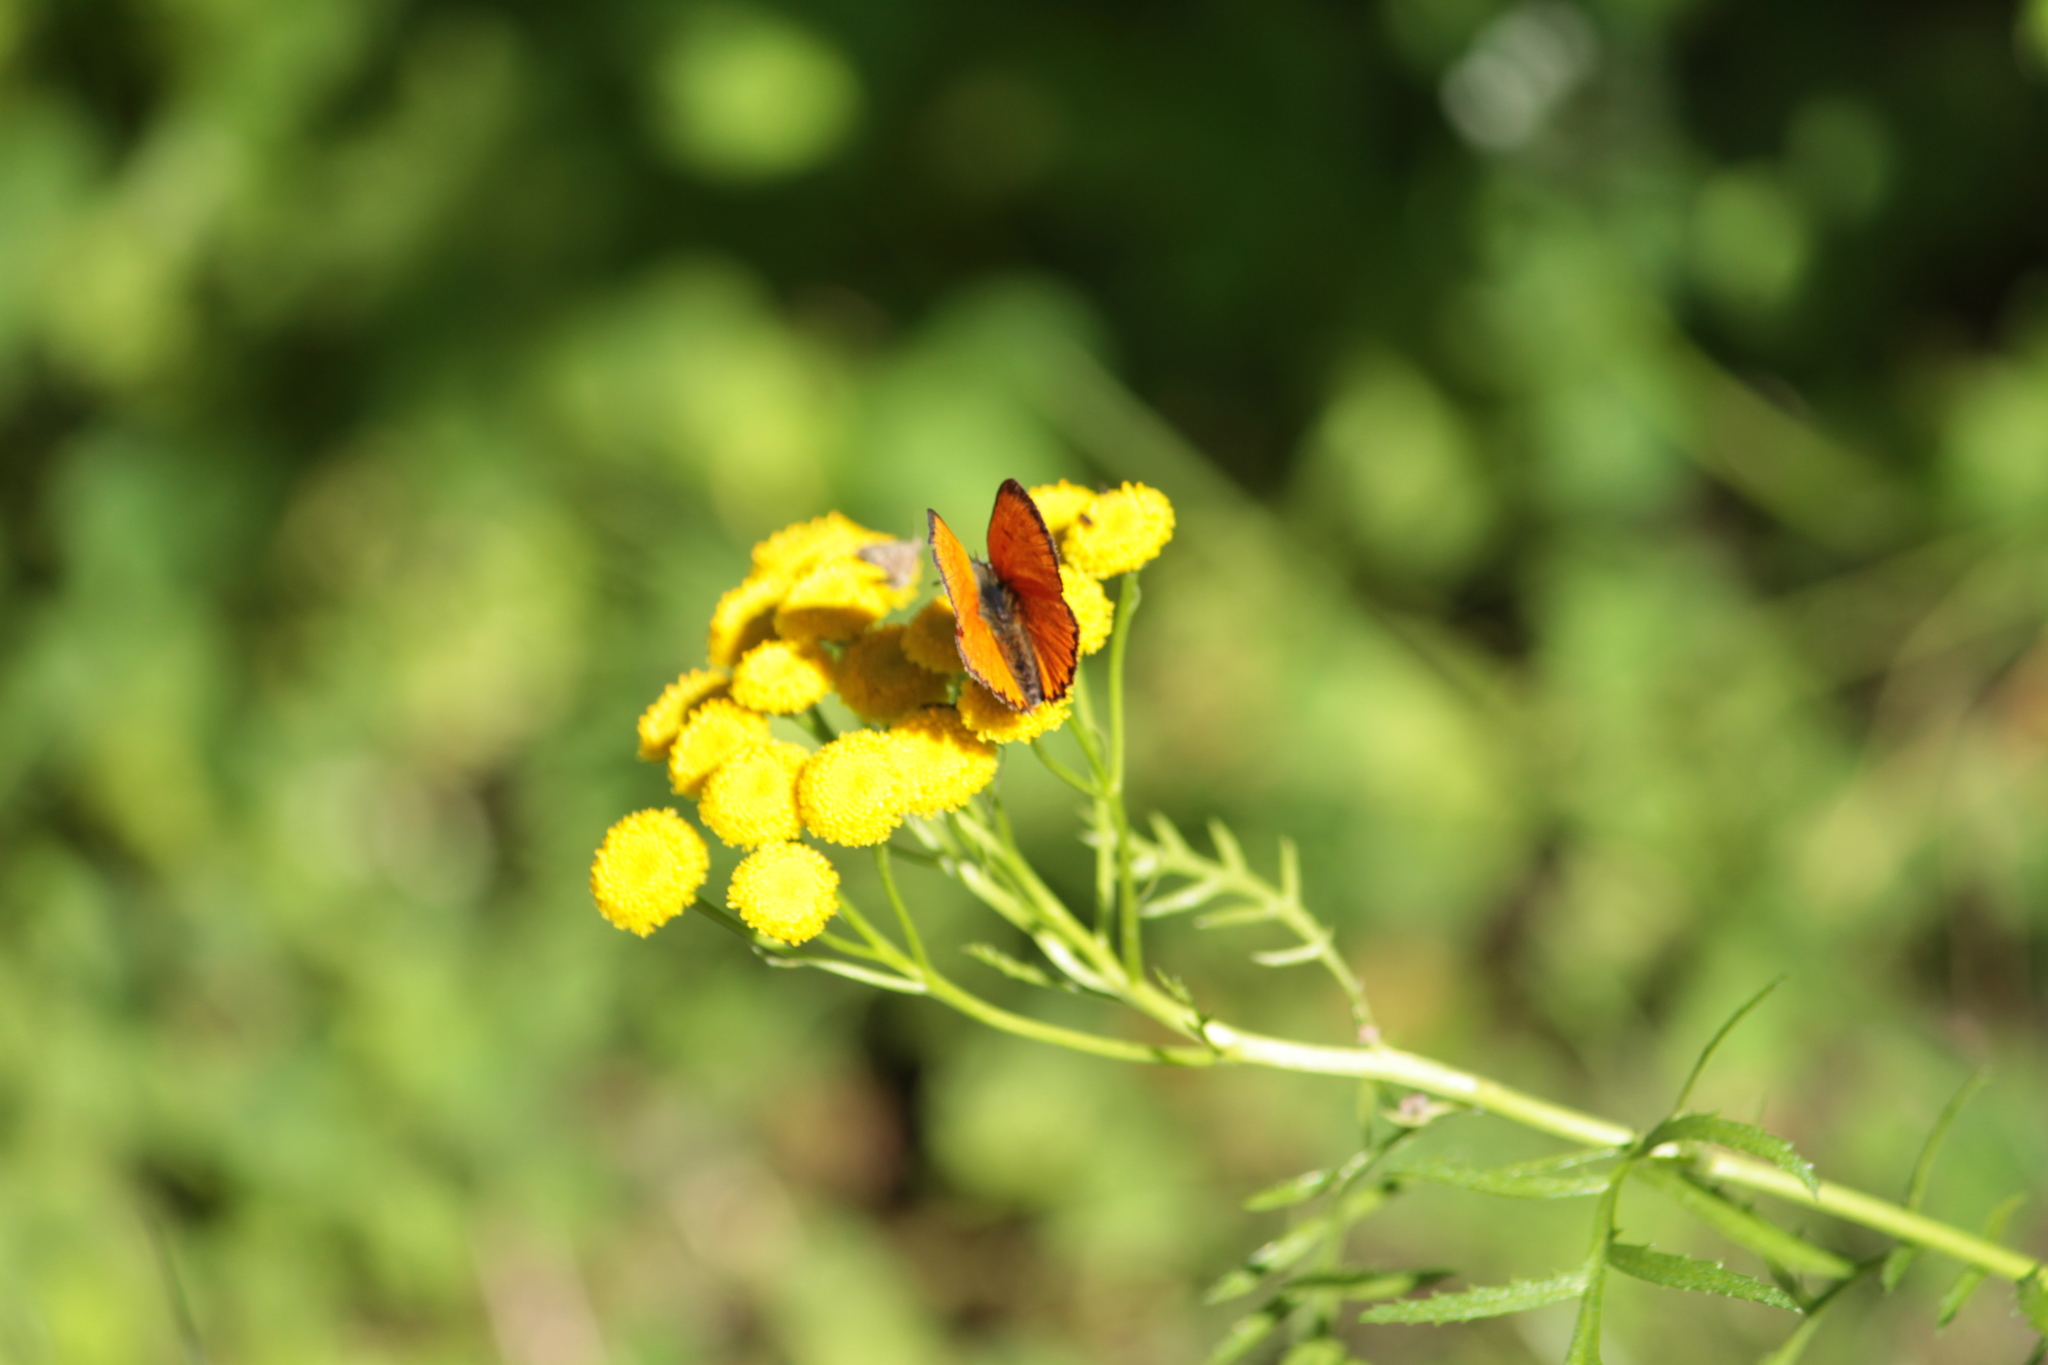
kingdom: Animalia
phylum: Arthropoda
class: Insecta
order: Lepidoptera
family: Lycaenidae
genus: Lycaena
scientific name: Lycaena virgaureae
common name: Scarce copper
